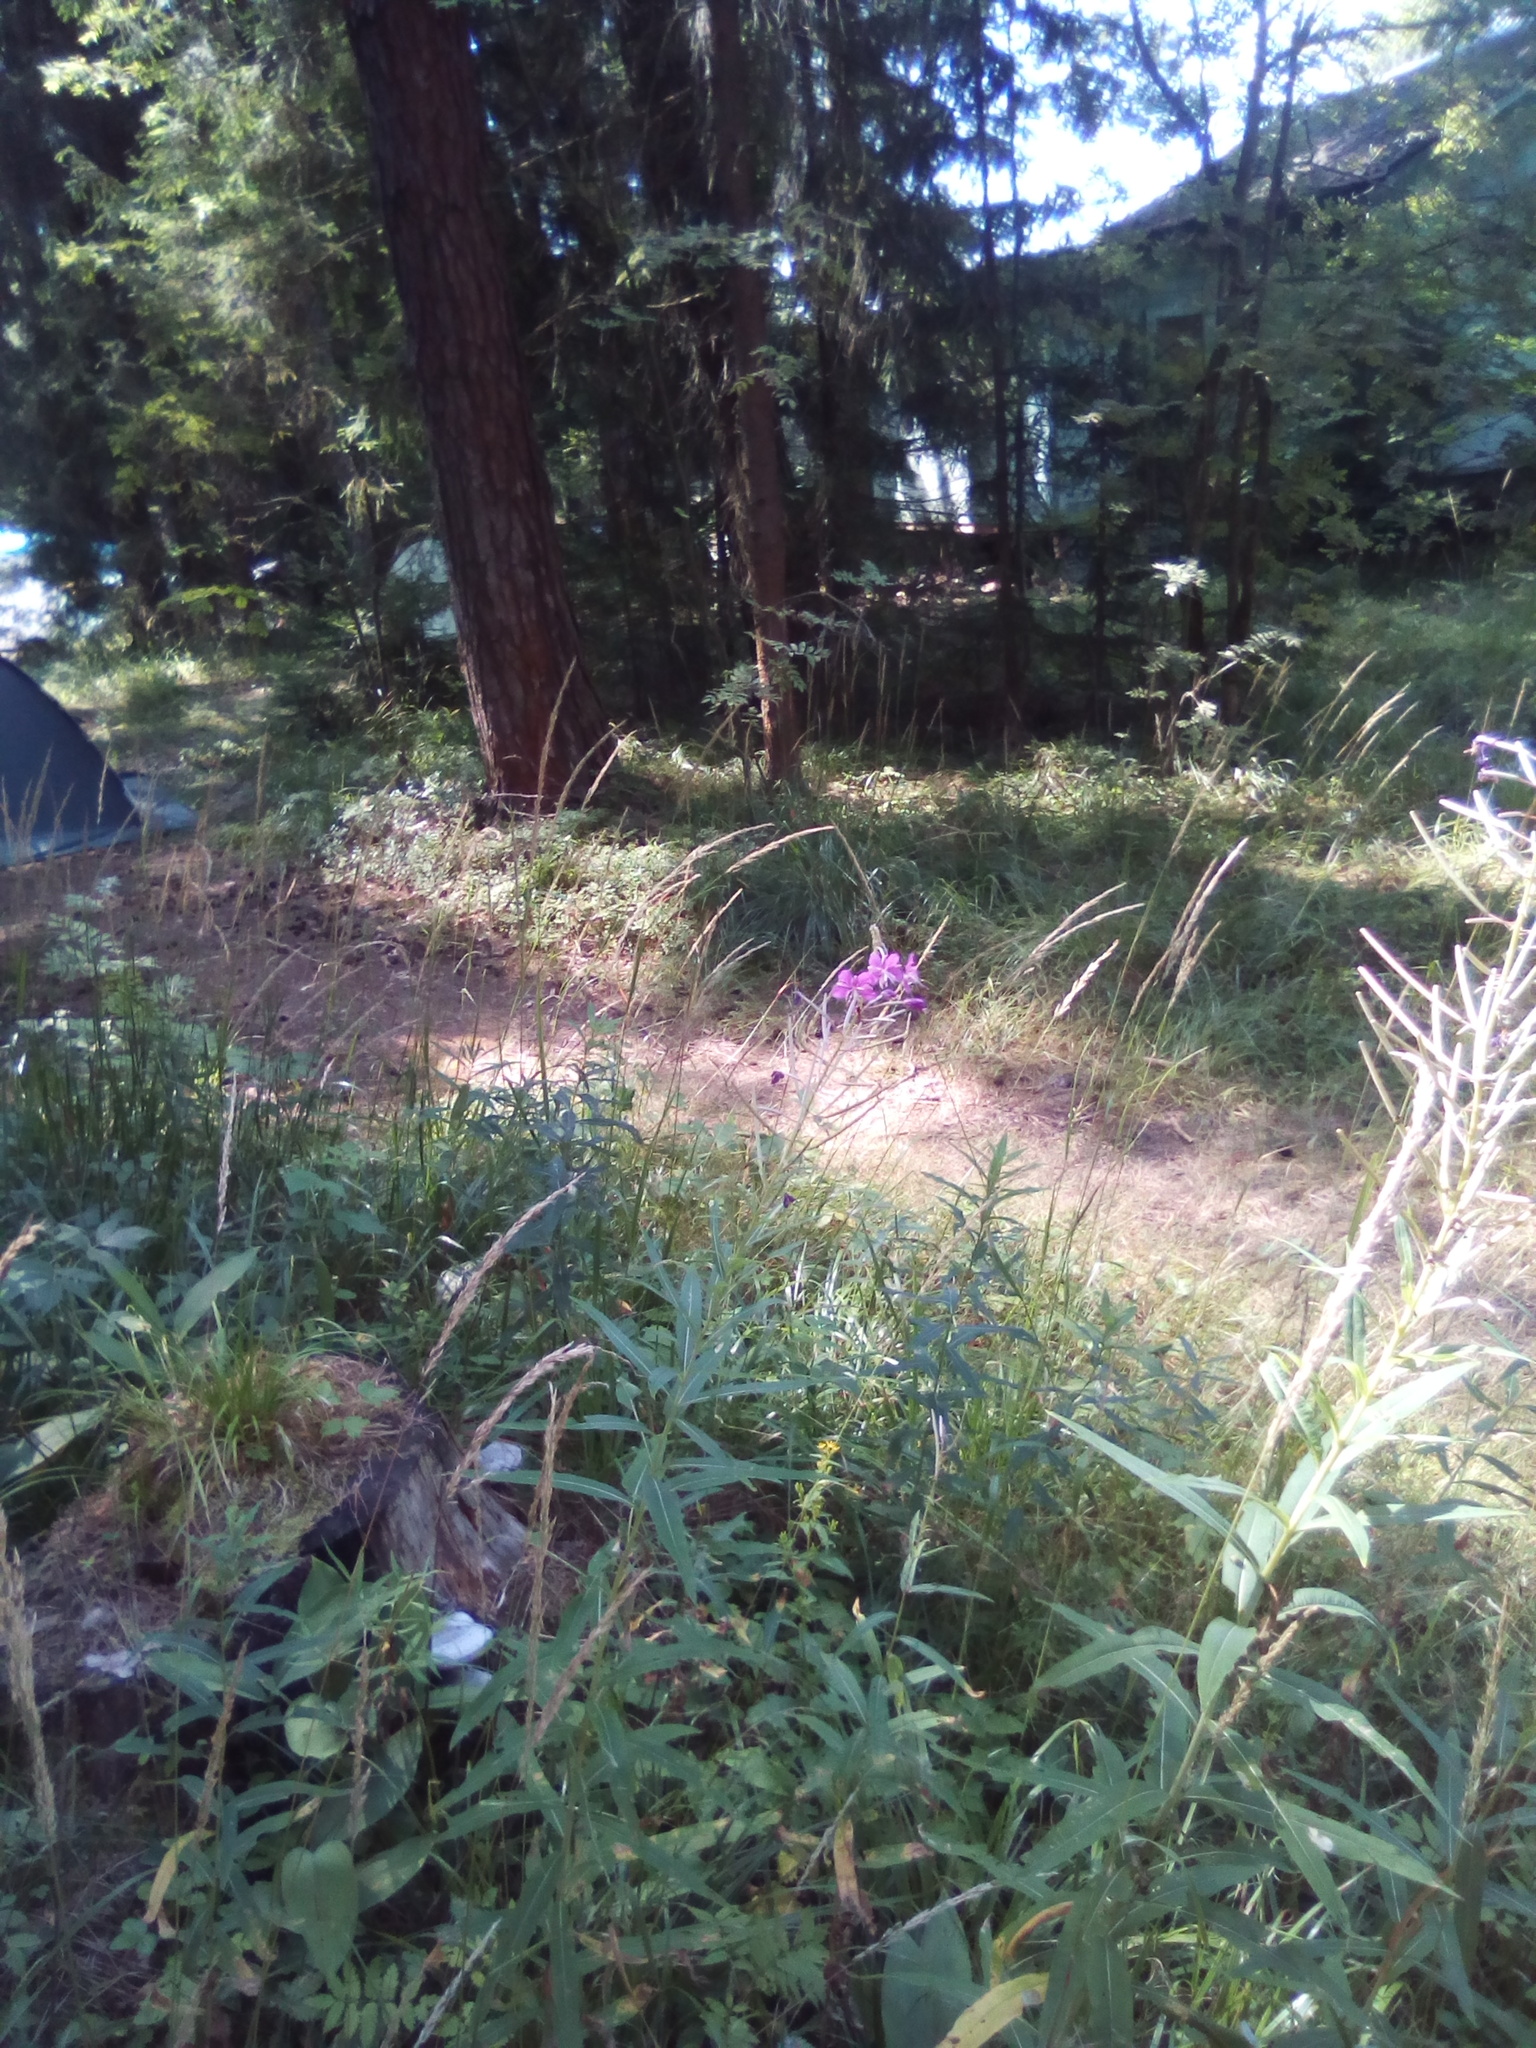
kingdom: Plantae
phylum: Tracheophyta
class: Magnoliopsida
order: Myrtales
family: Onagraceae
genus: Chamaenerion
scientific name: Chamaenerion angustifolium
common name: Fireweed
